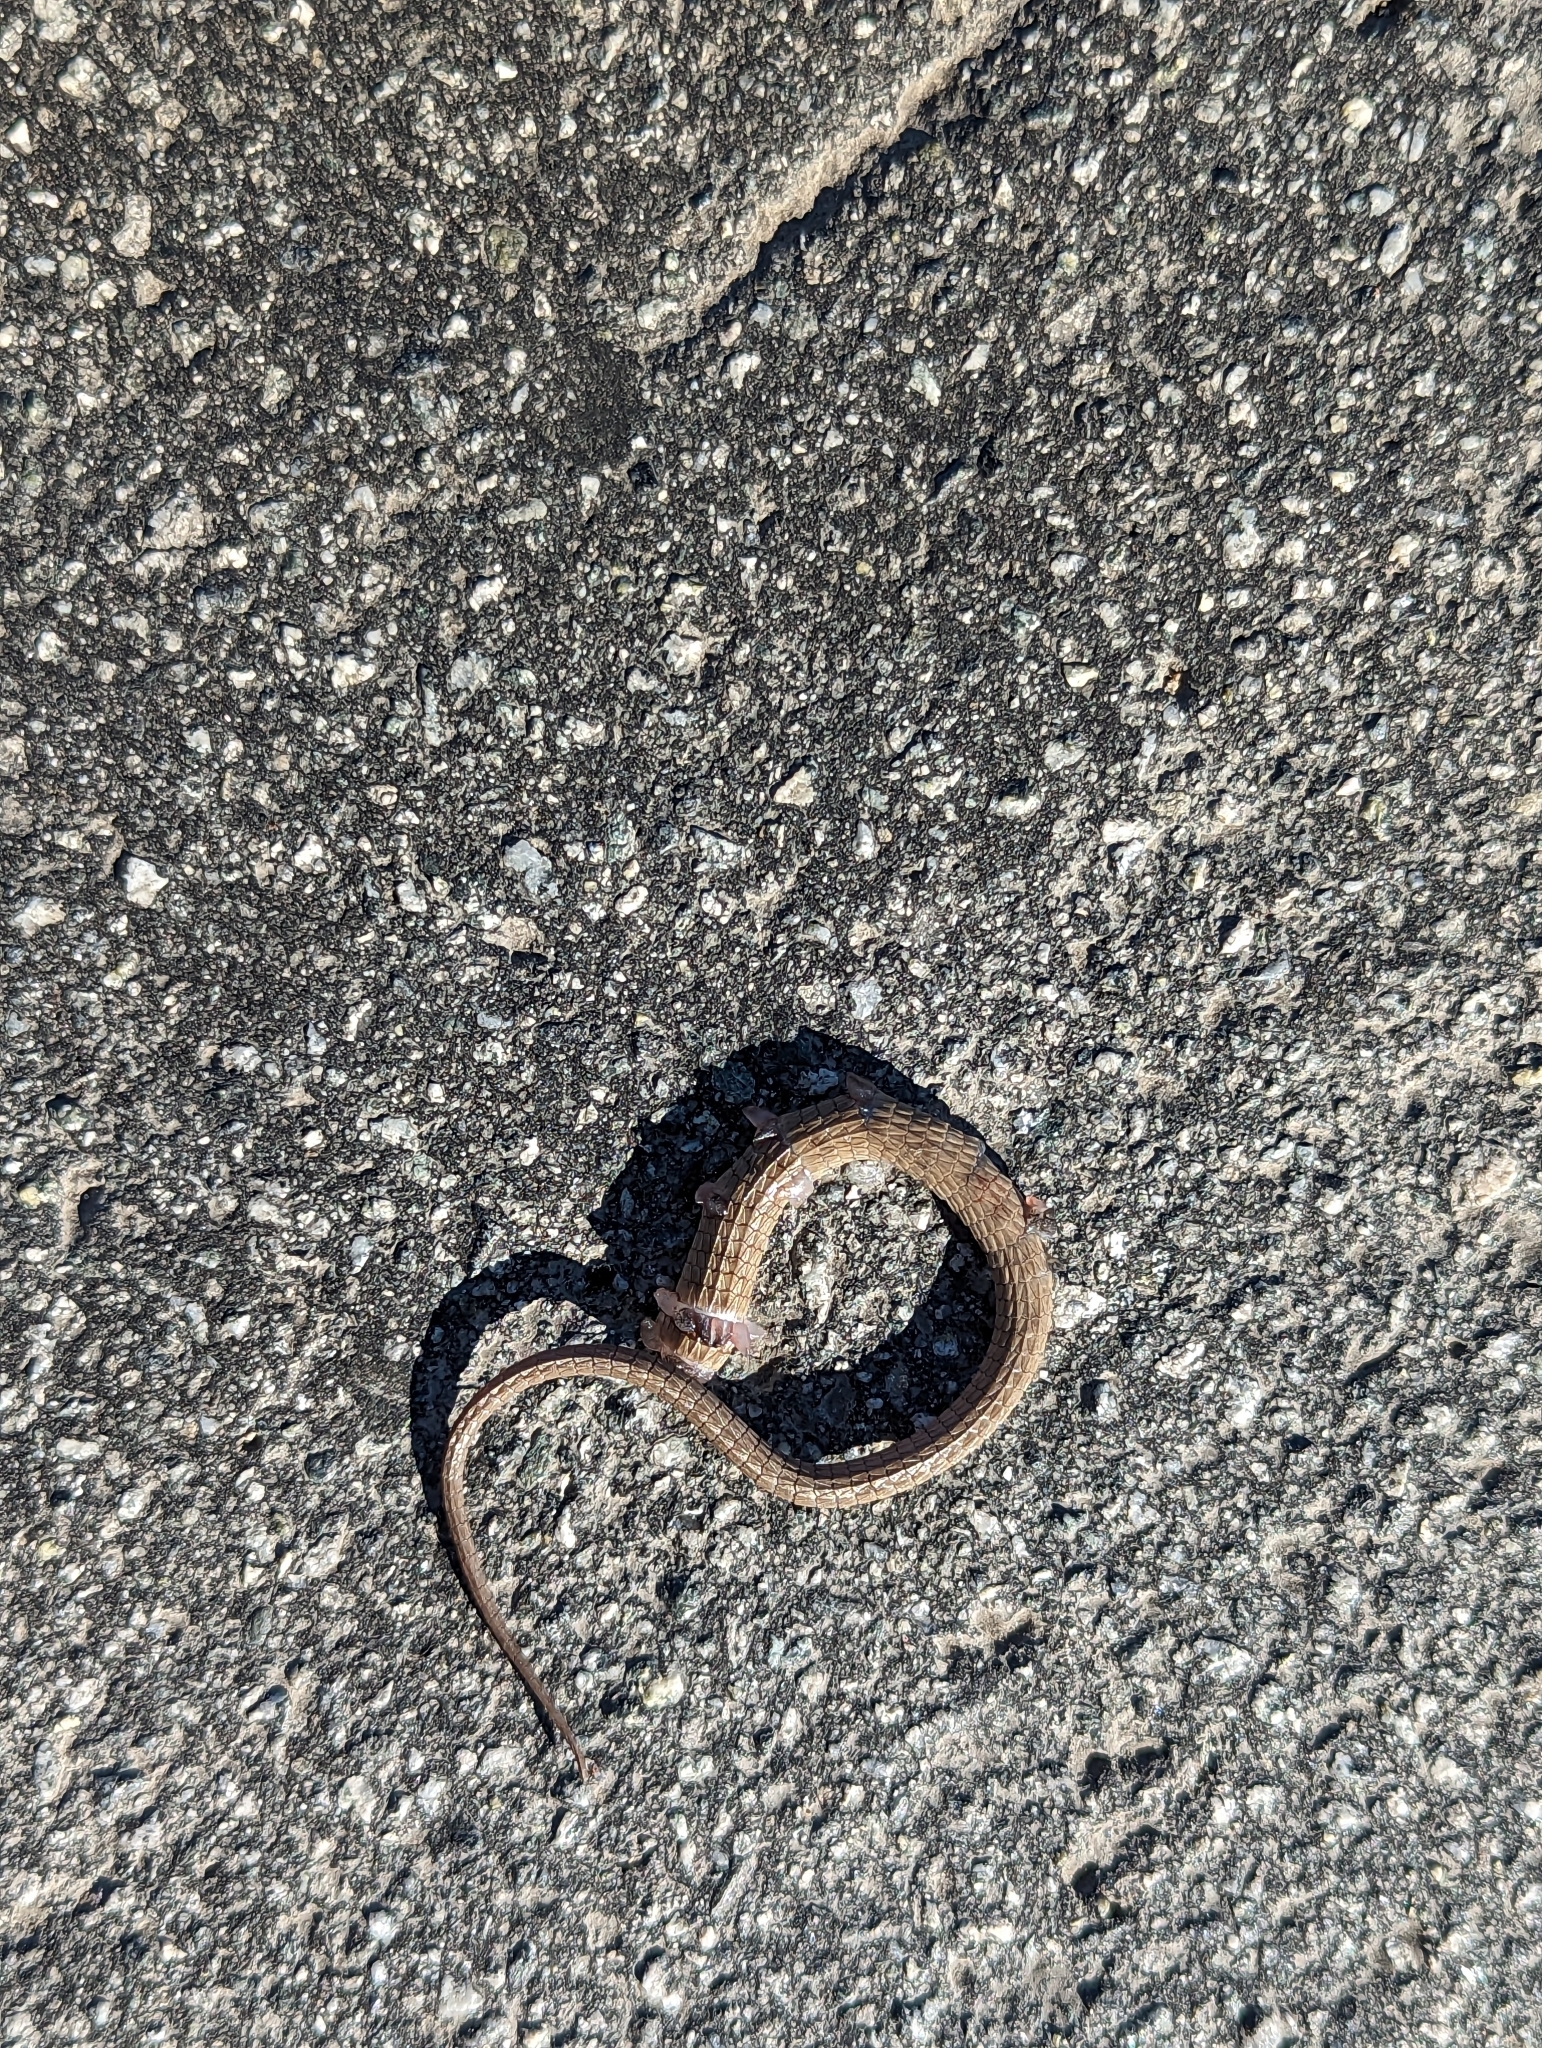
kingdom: Animalia
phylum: Chordata
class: Squamata
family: Anguidae
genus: Elgaria
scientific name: Elgaria multicarinata
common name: Southern alligator lizard
